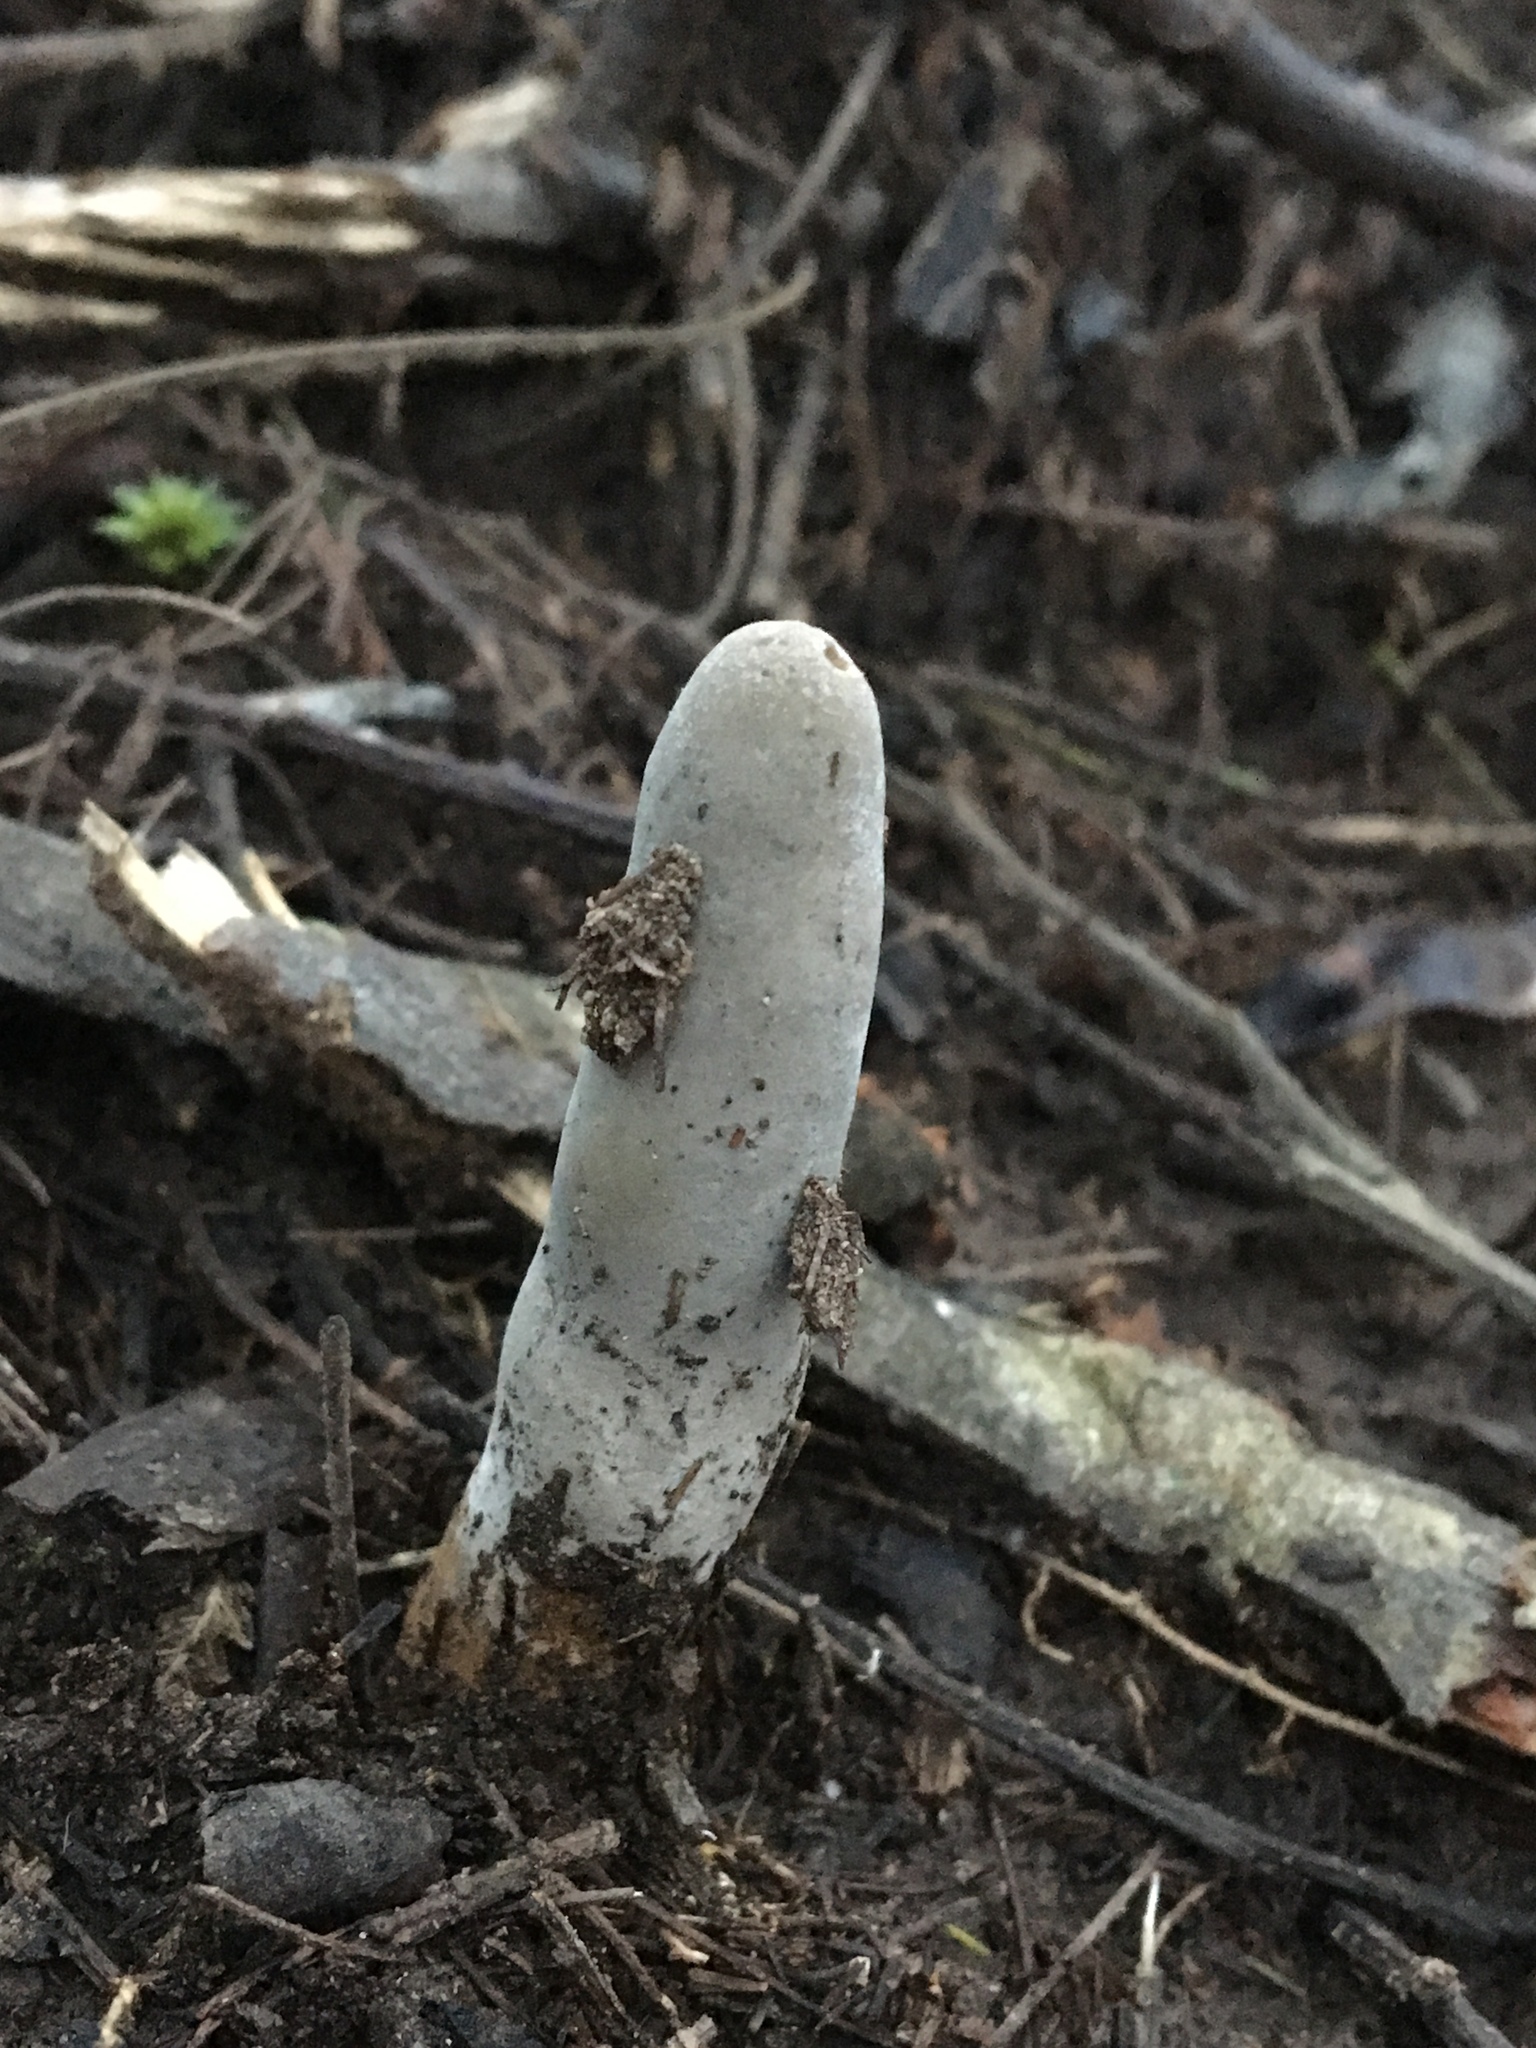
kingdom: Fungi
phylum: Ascomycota
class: Sordariomycetes
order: Hypocreales
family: Cordycipitaceae
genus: Cordyceps
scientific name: Cordyceps
